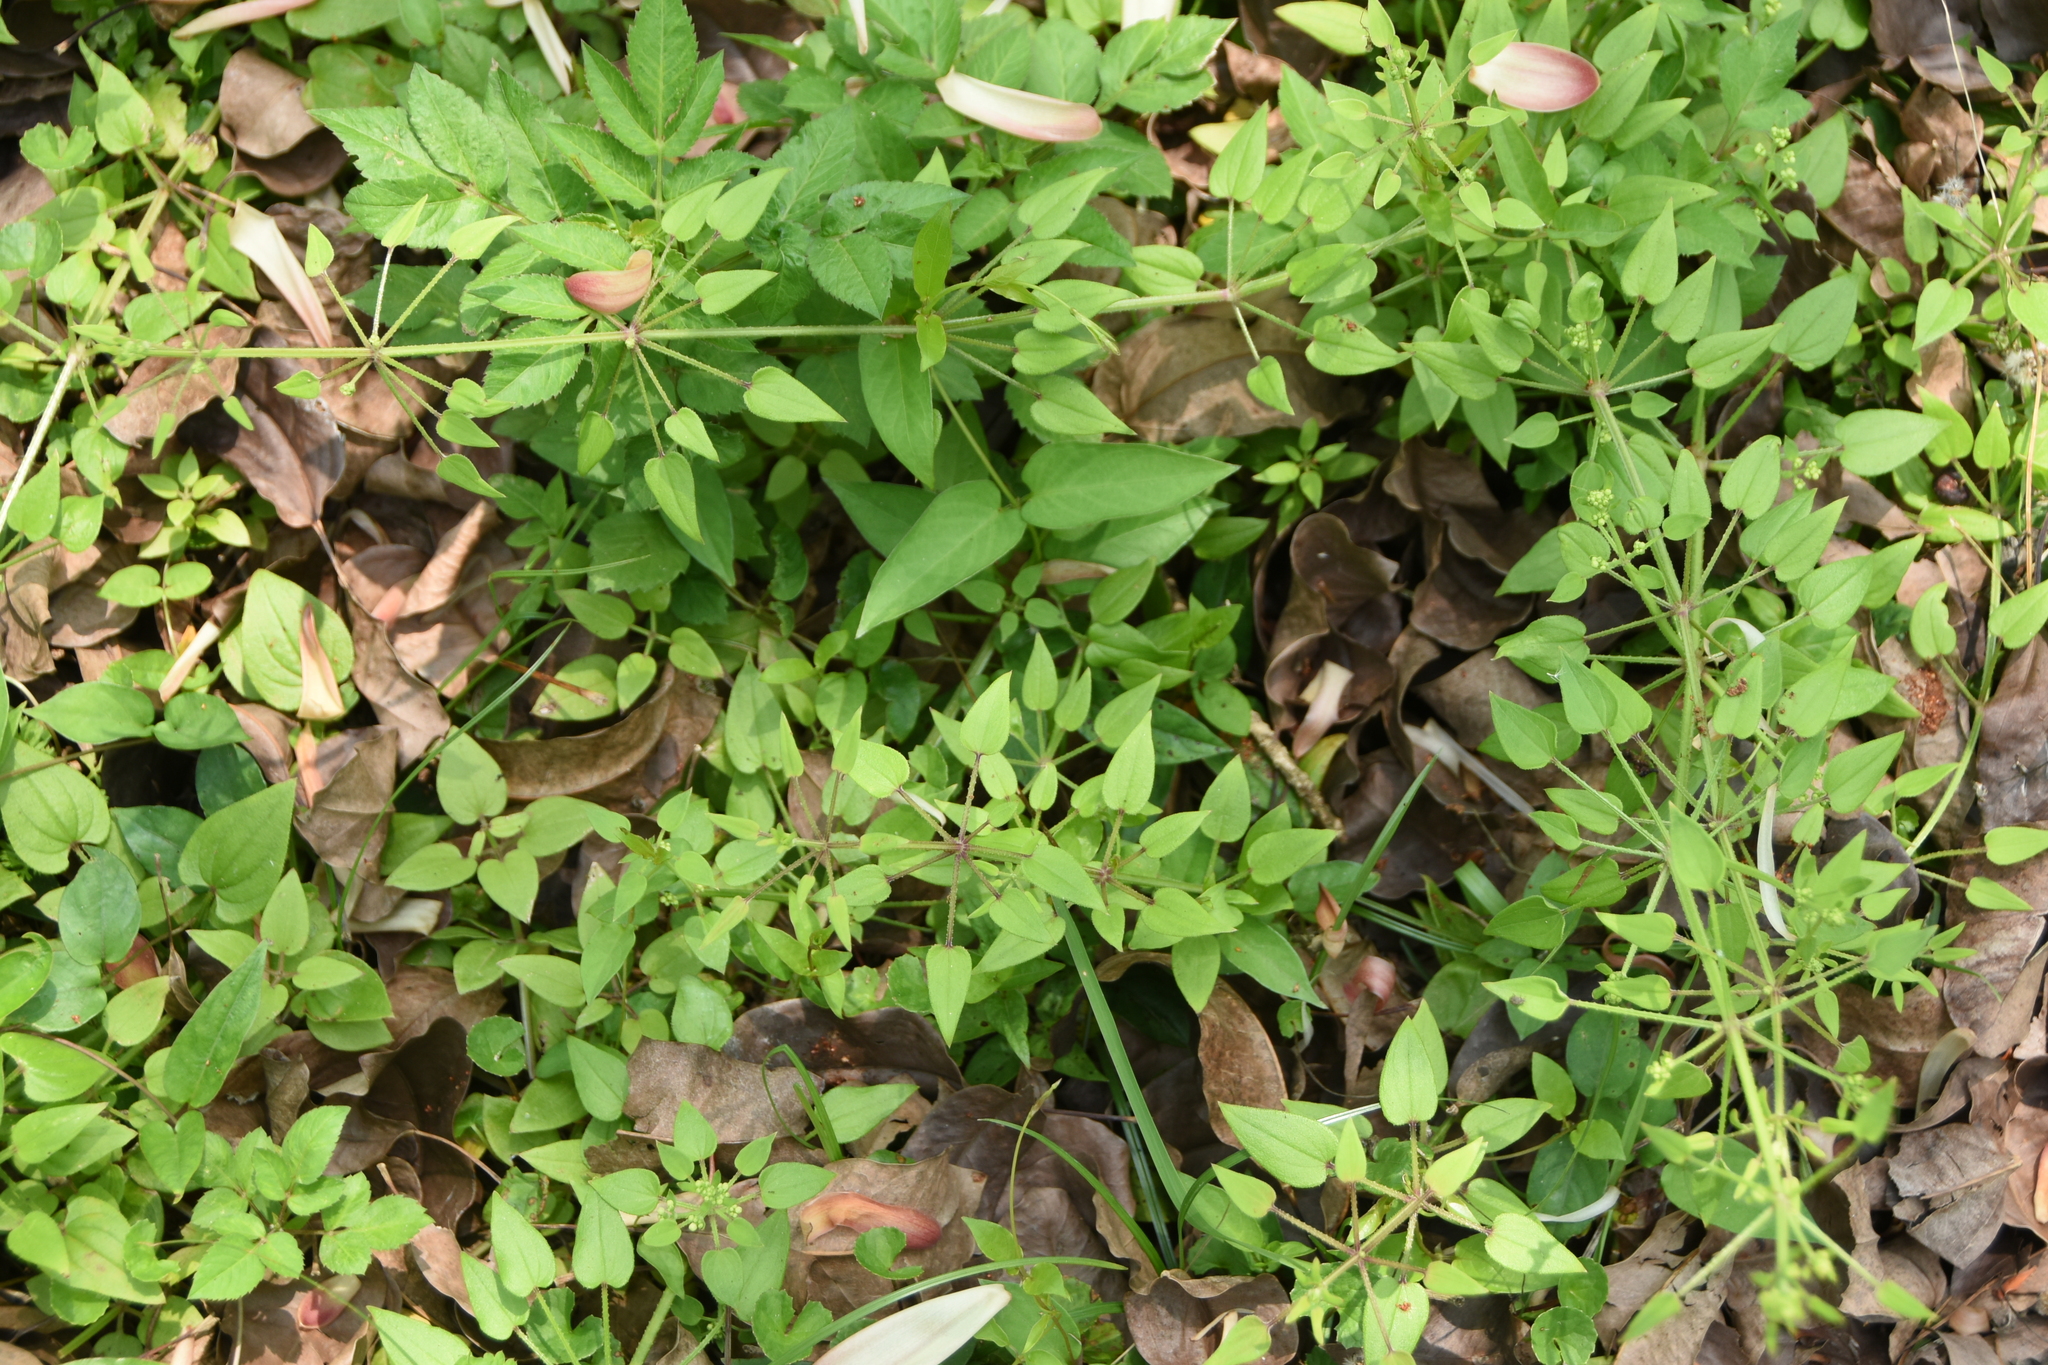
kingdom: Plantae
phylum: Tracheophyta
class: Magnoliopsida
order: Gentianales
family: Rubiaceae
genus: Rubia
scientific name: Rubia argyi
